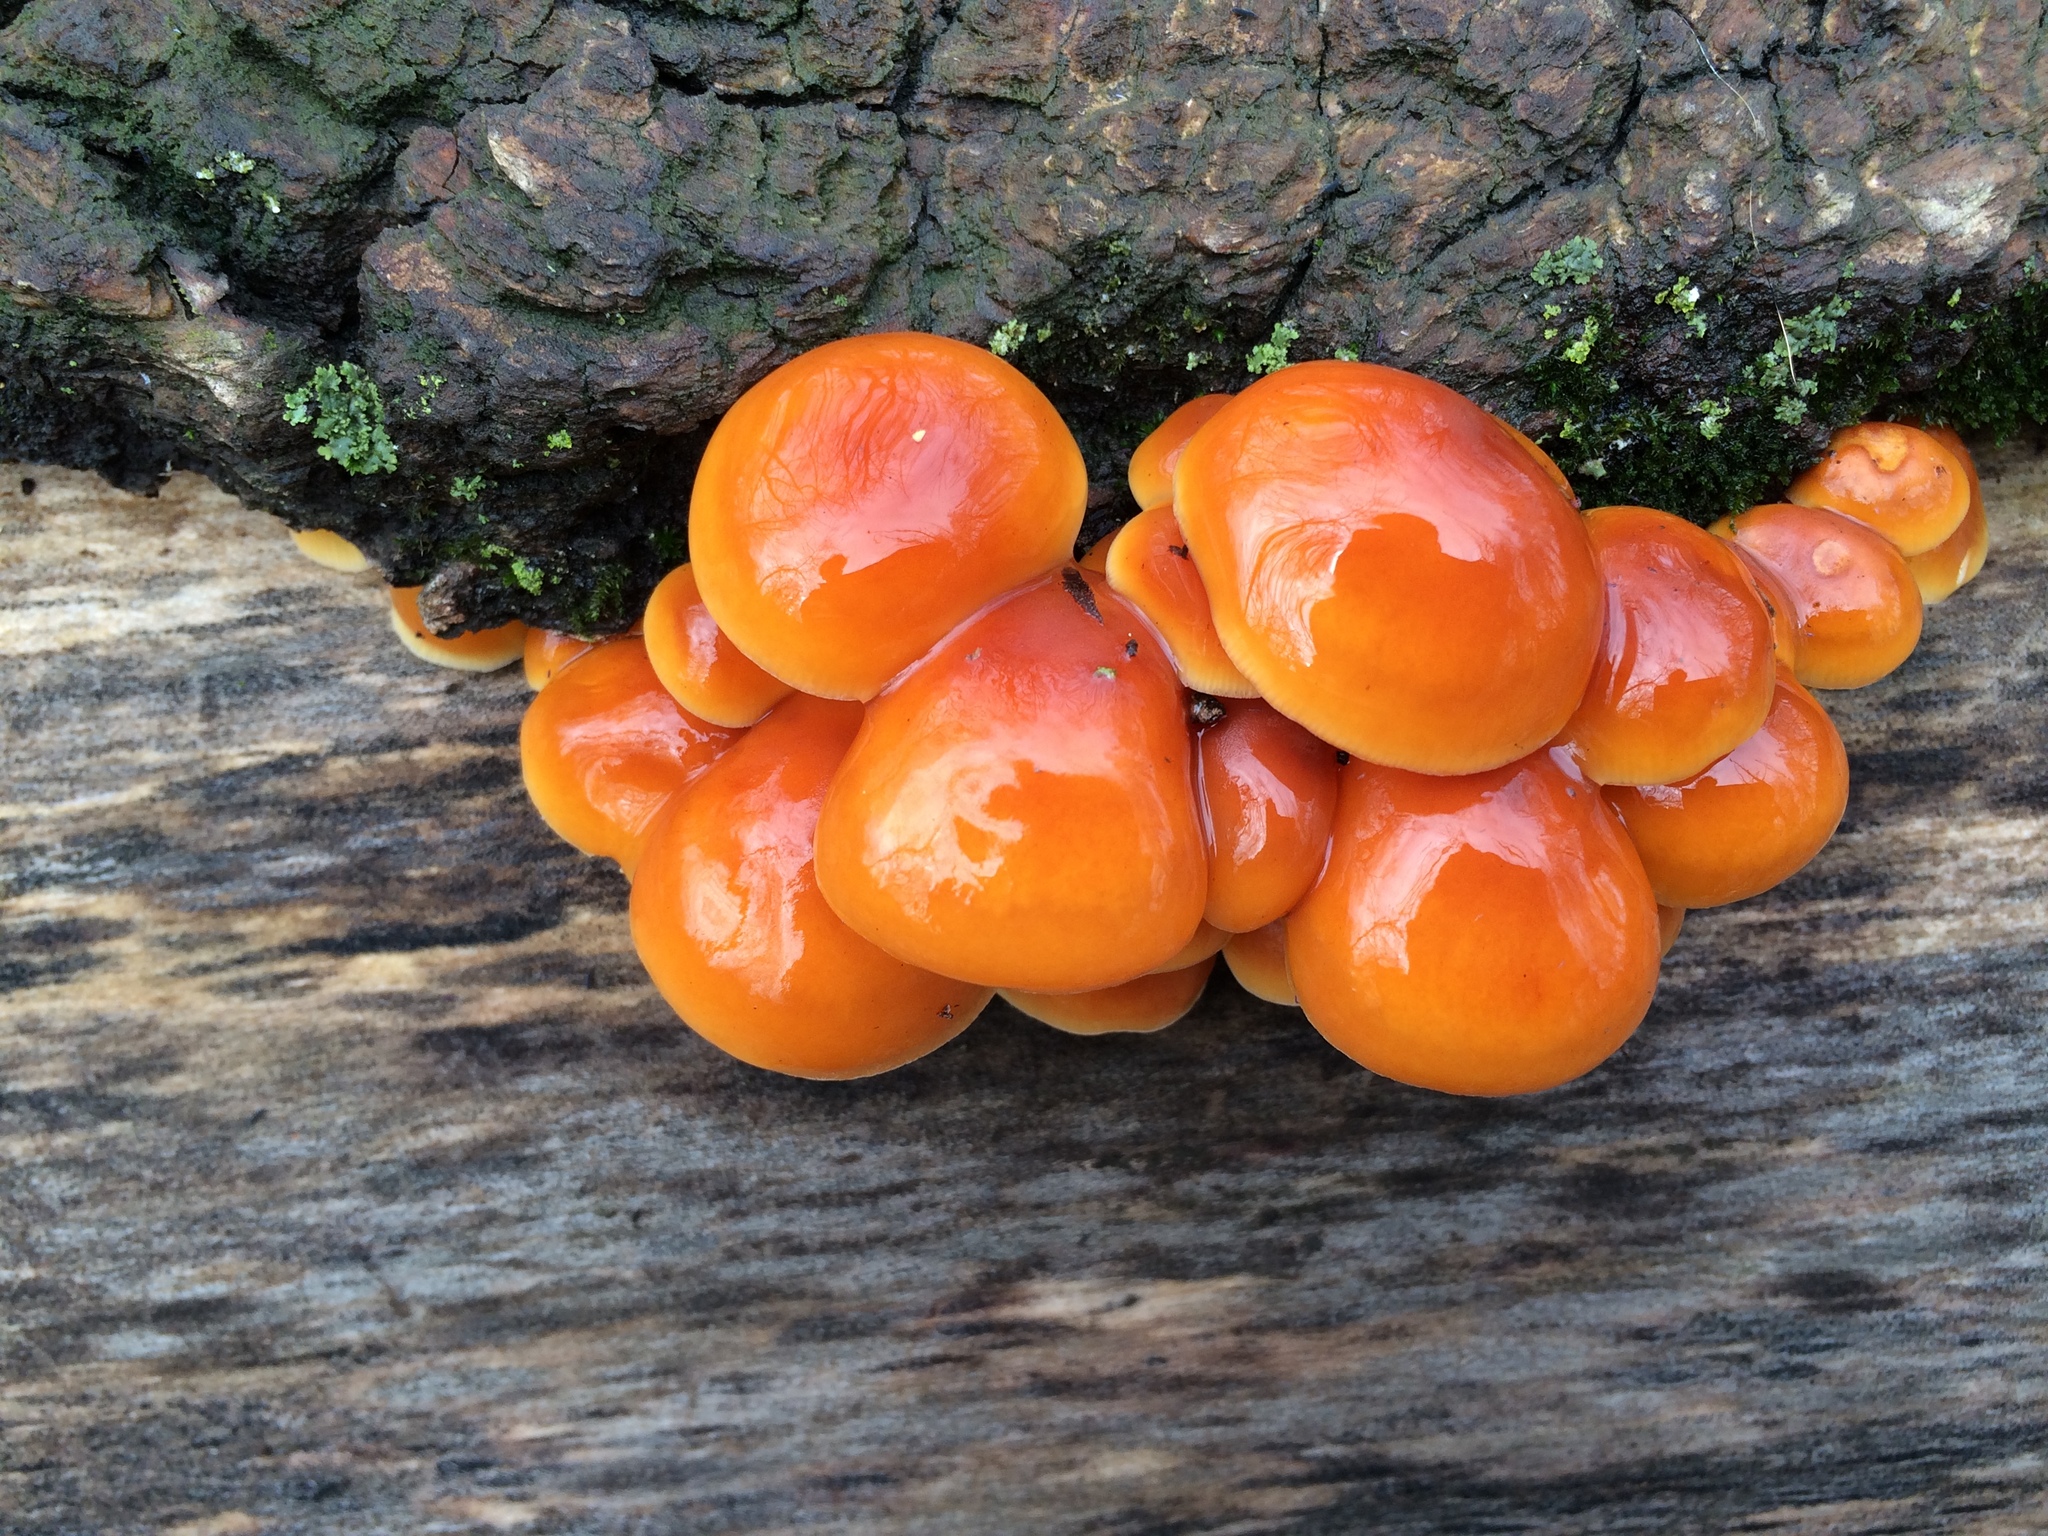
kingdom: Fungi
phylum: Basidiomycota
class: Agaricomycetes
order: Agaricales
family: Physalacriaceae
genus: Flammulina
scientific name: Flammulina velutipes
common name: Velvet shank
